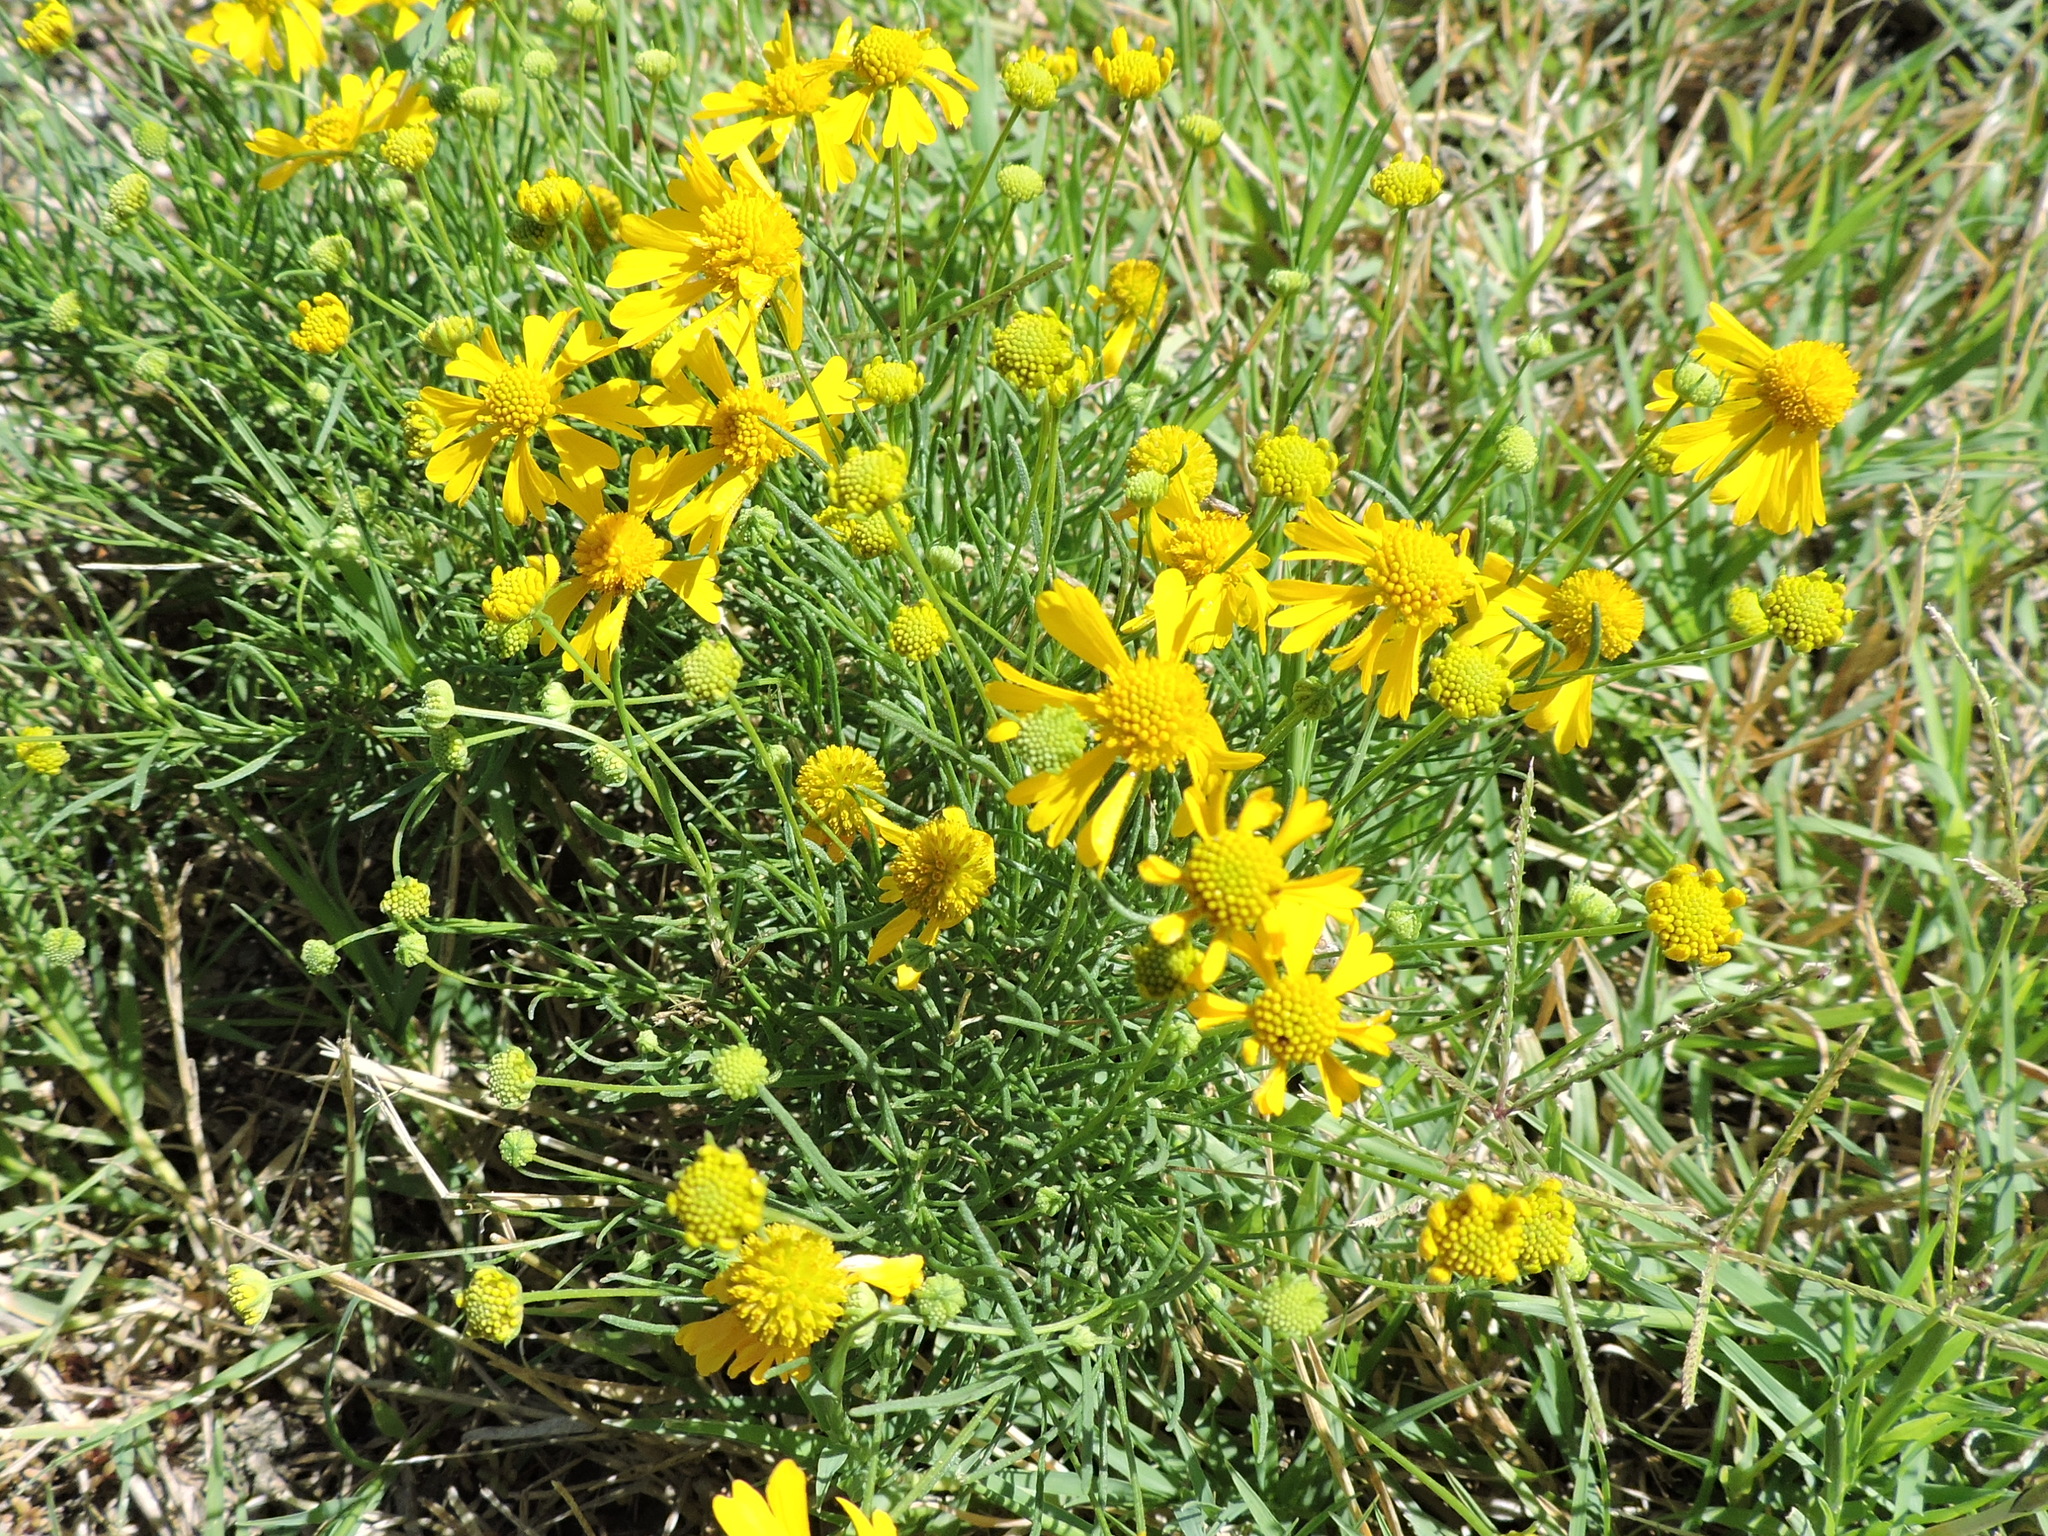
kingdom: Plantae
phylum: Tracheophyta
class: Magnoliopsida
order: Asterales
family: Asteraceae
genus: Helenium
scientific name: Helenium amarum
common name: Bitter sneezeweed
